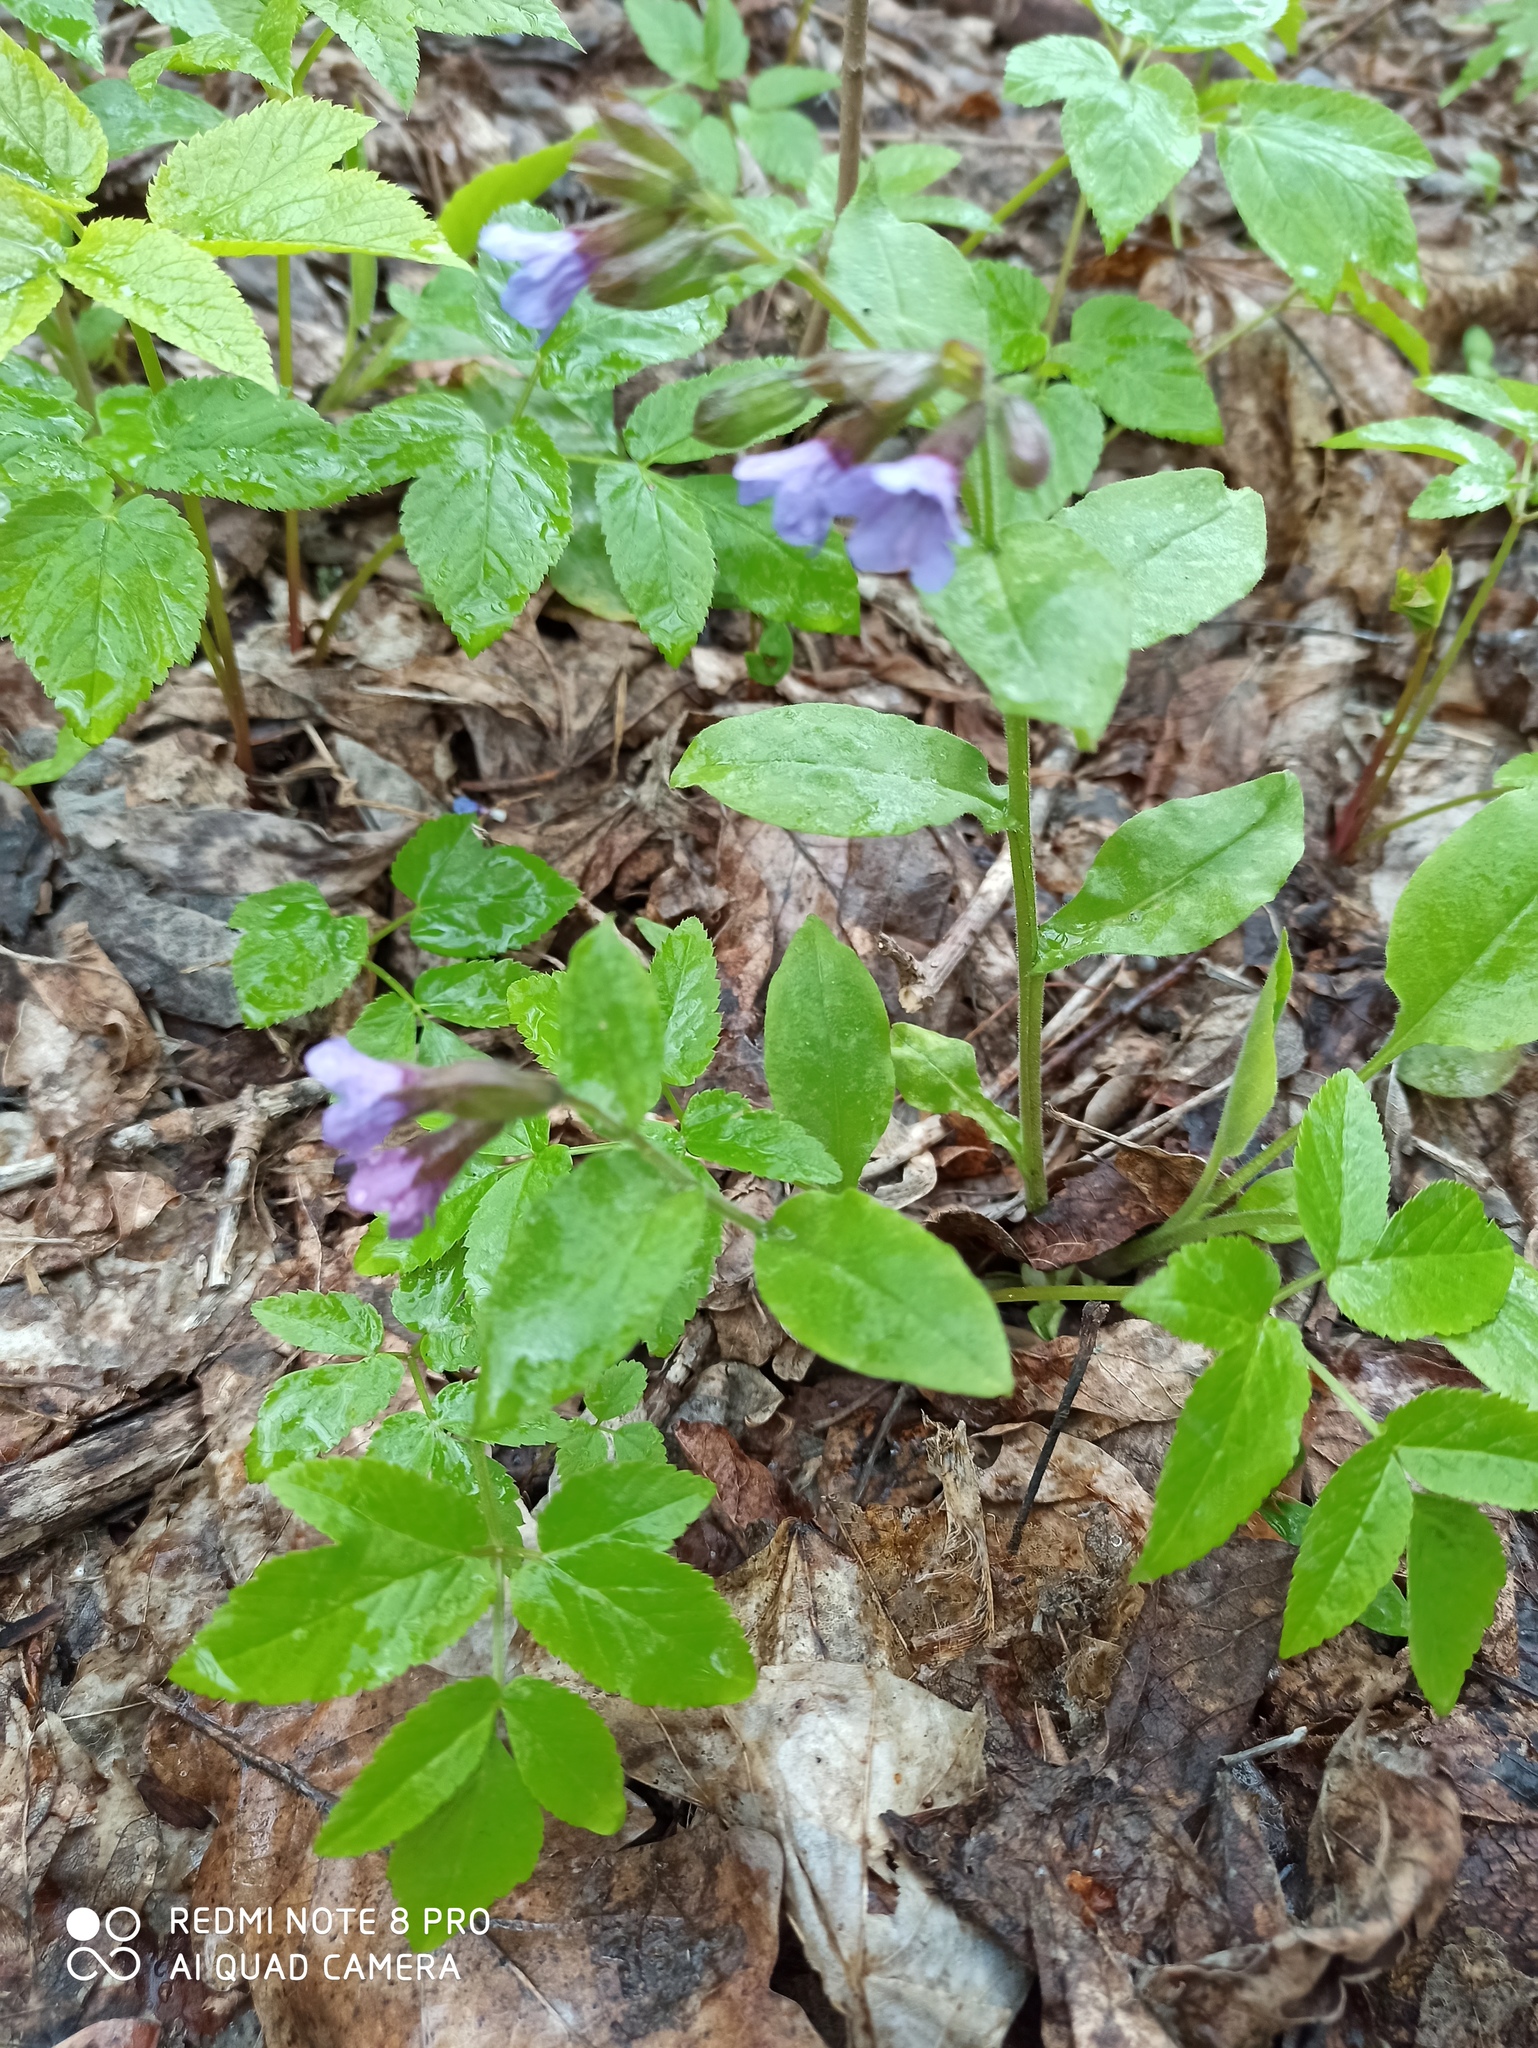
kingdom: Plantae
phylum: Tracheophyta
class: Magnoliopsida
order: Boraginales
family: Boraginaceae
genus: Pulmonaria
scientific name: Pulmonaria obscura
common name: Suffolk lungwort
